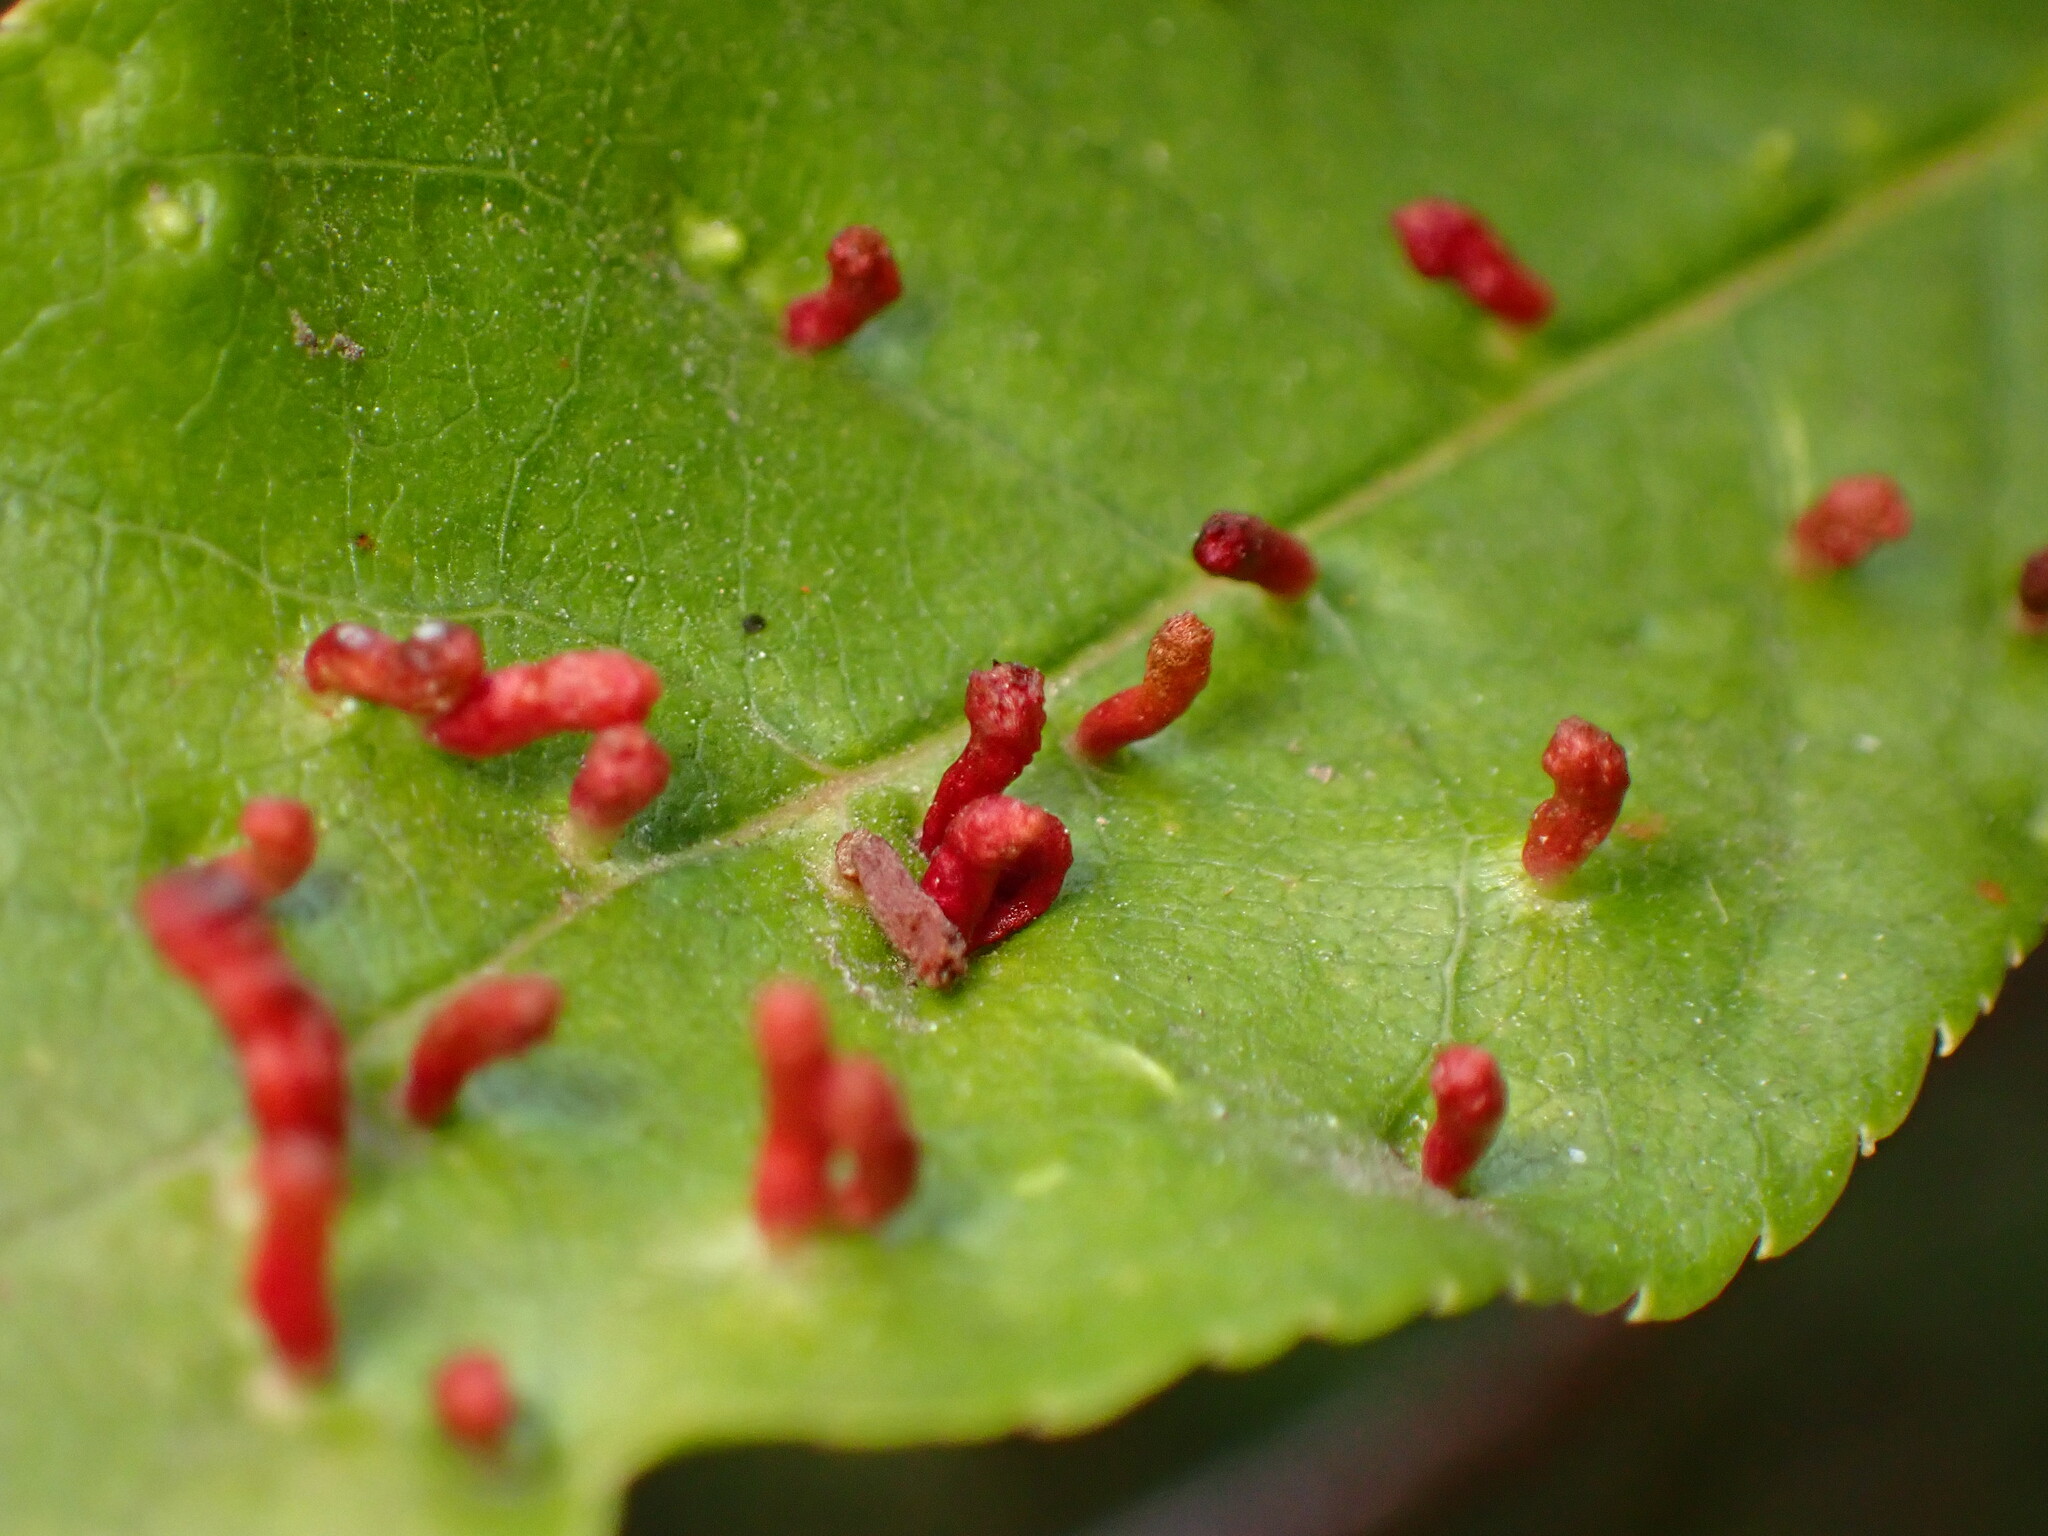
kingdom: Animalia
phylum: Arthropoda
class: Arachnida
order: Trombidiformes
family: Eriophyidae
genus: Eriophyes
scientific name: Eriophyes emarginatae
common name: Plum leaf gall mite
